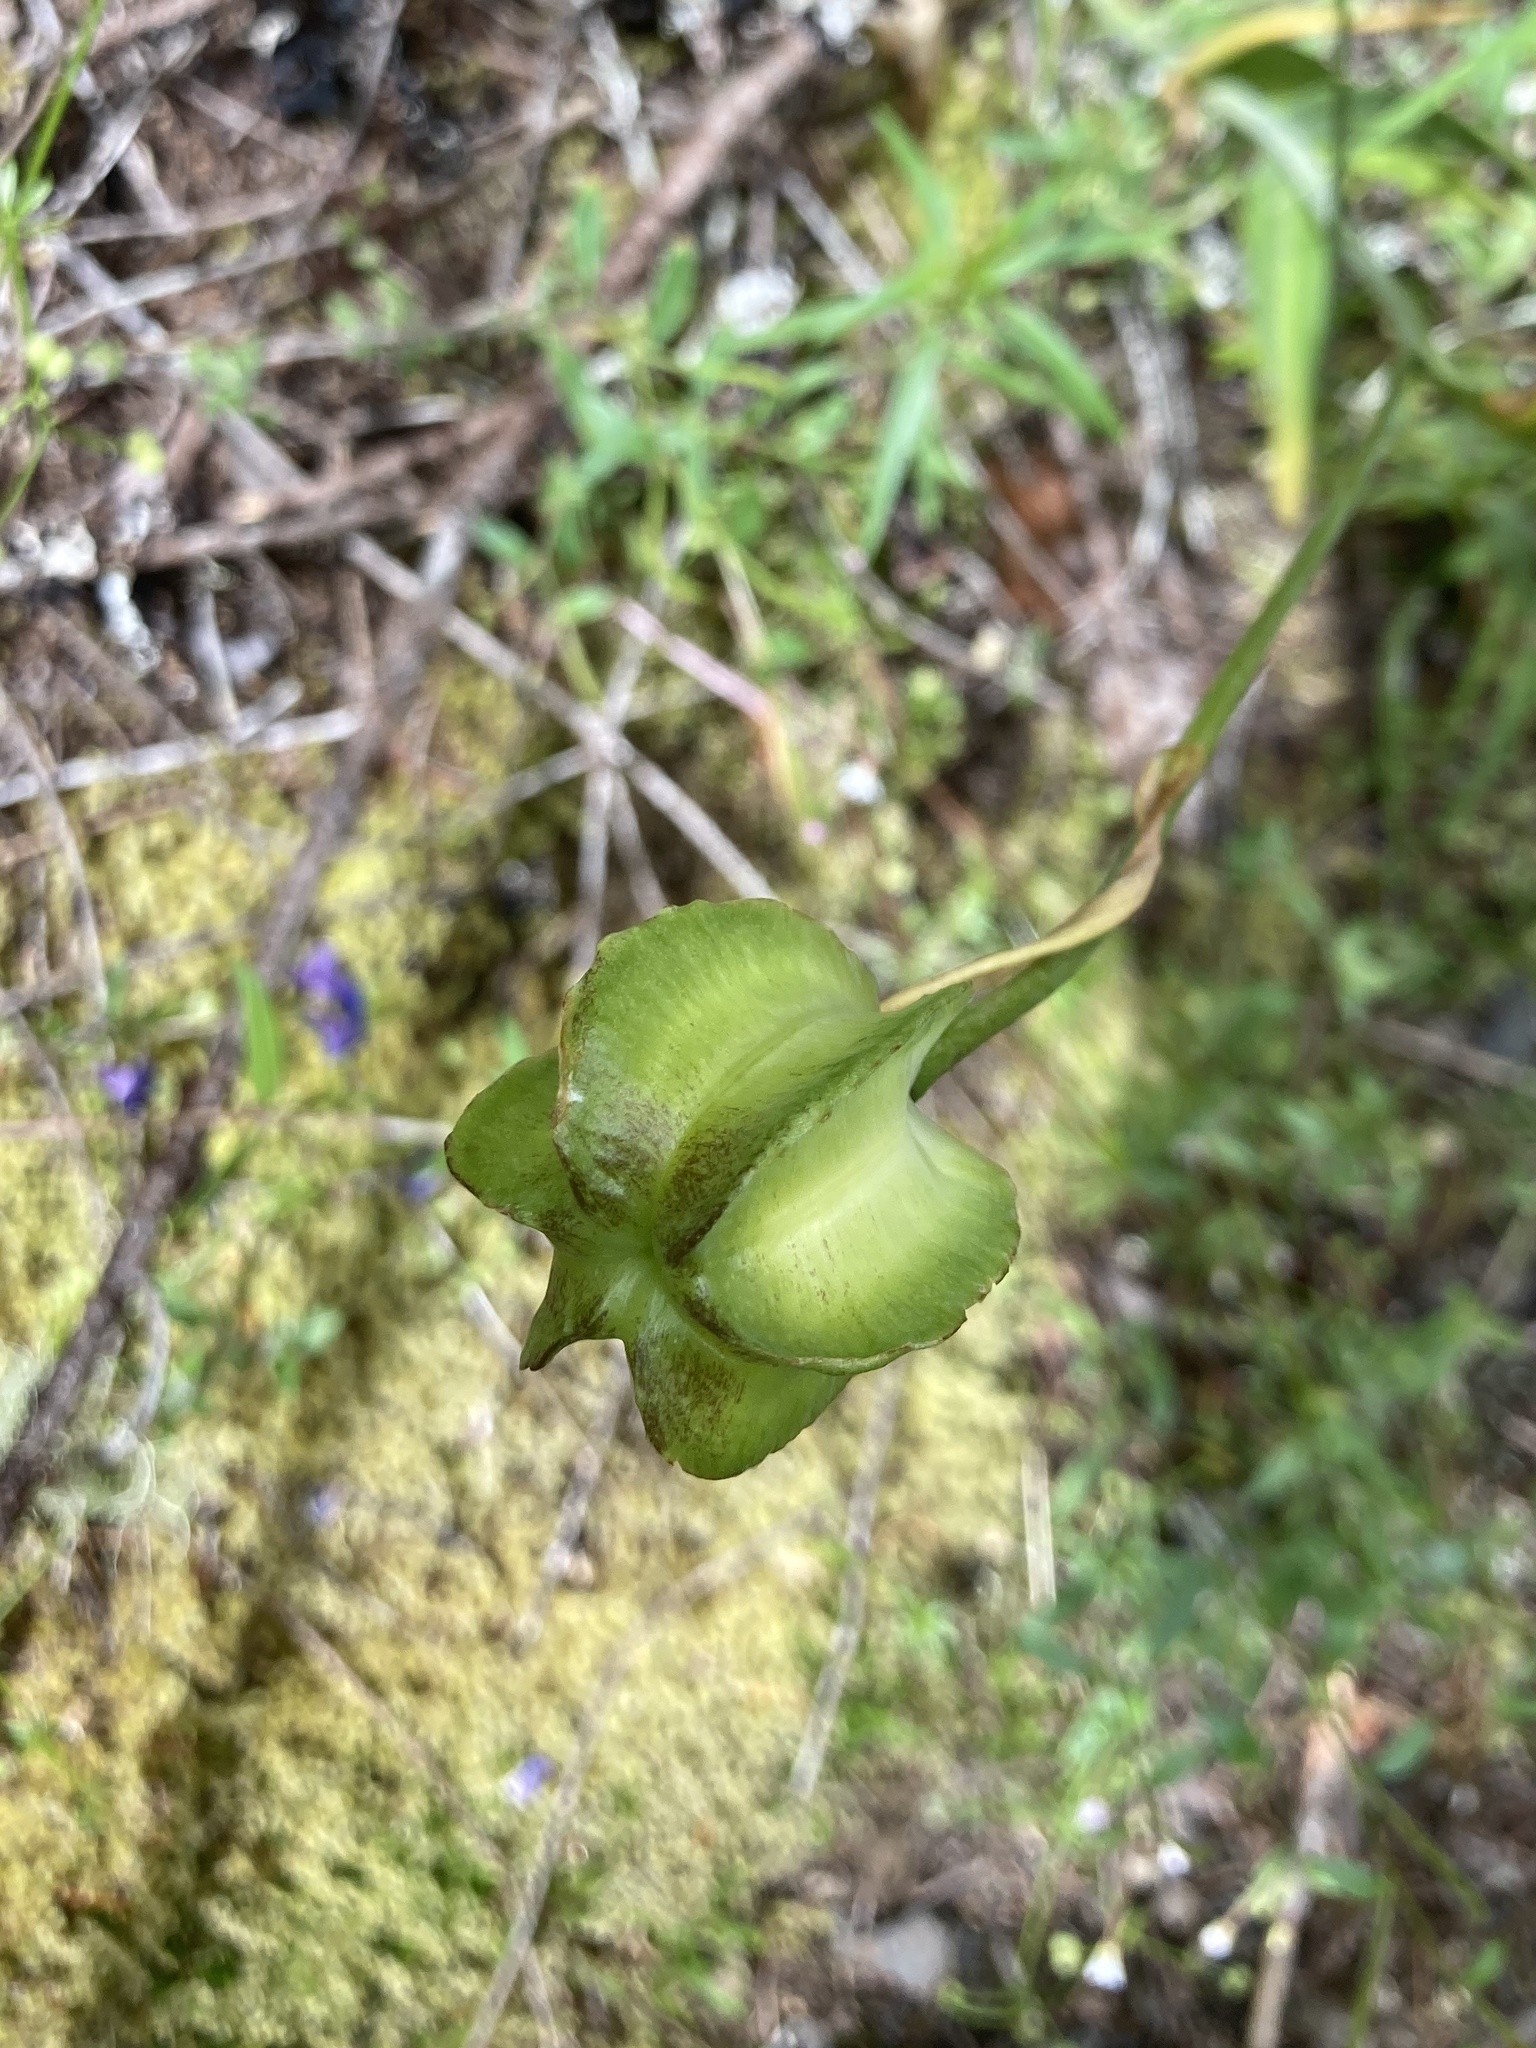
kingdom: Plantae
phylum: Tracheophyta
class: Liliopsida
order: Liliales
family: Liliaceae
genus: Fritillaria
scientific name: Fritillaria affinis
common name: Ojai fritillary
